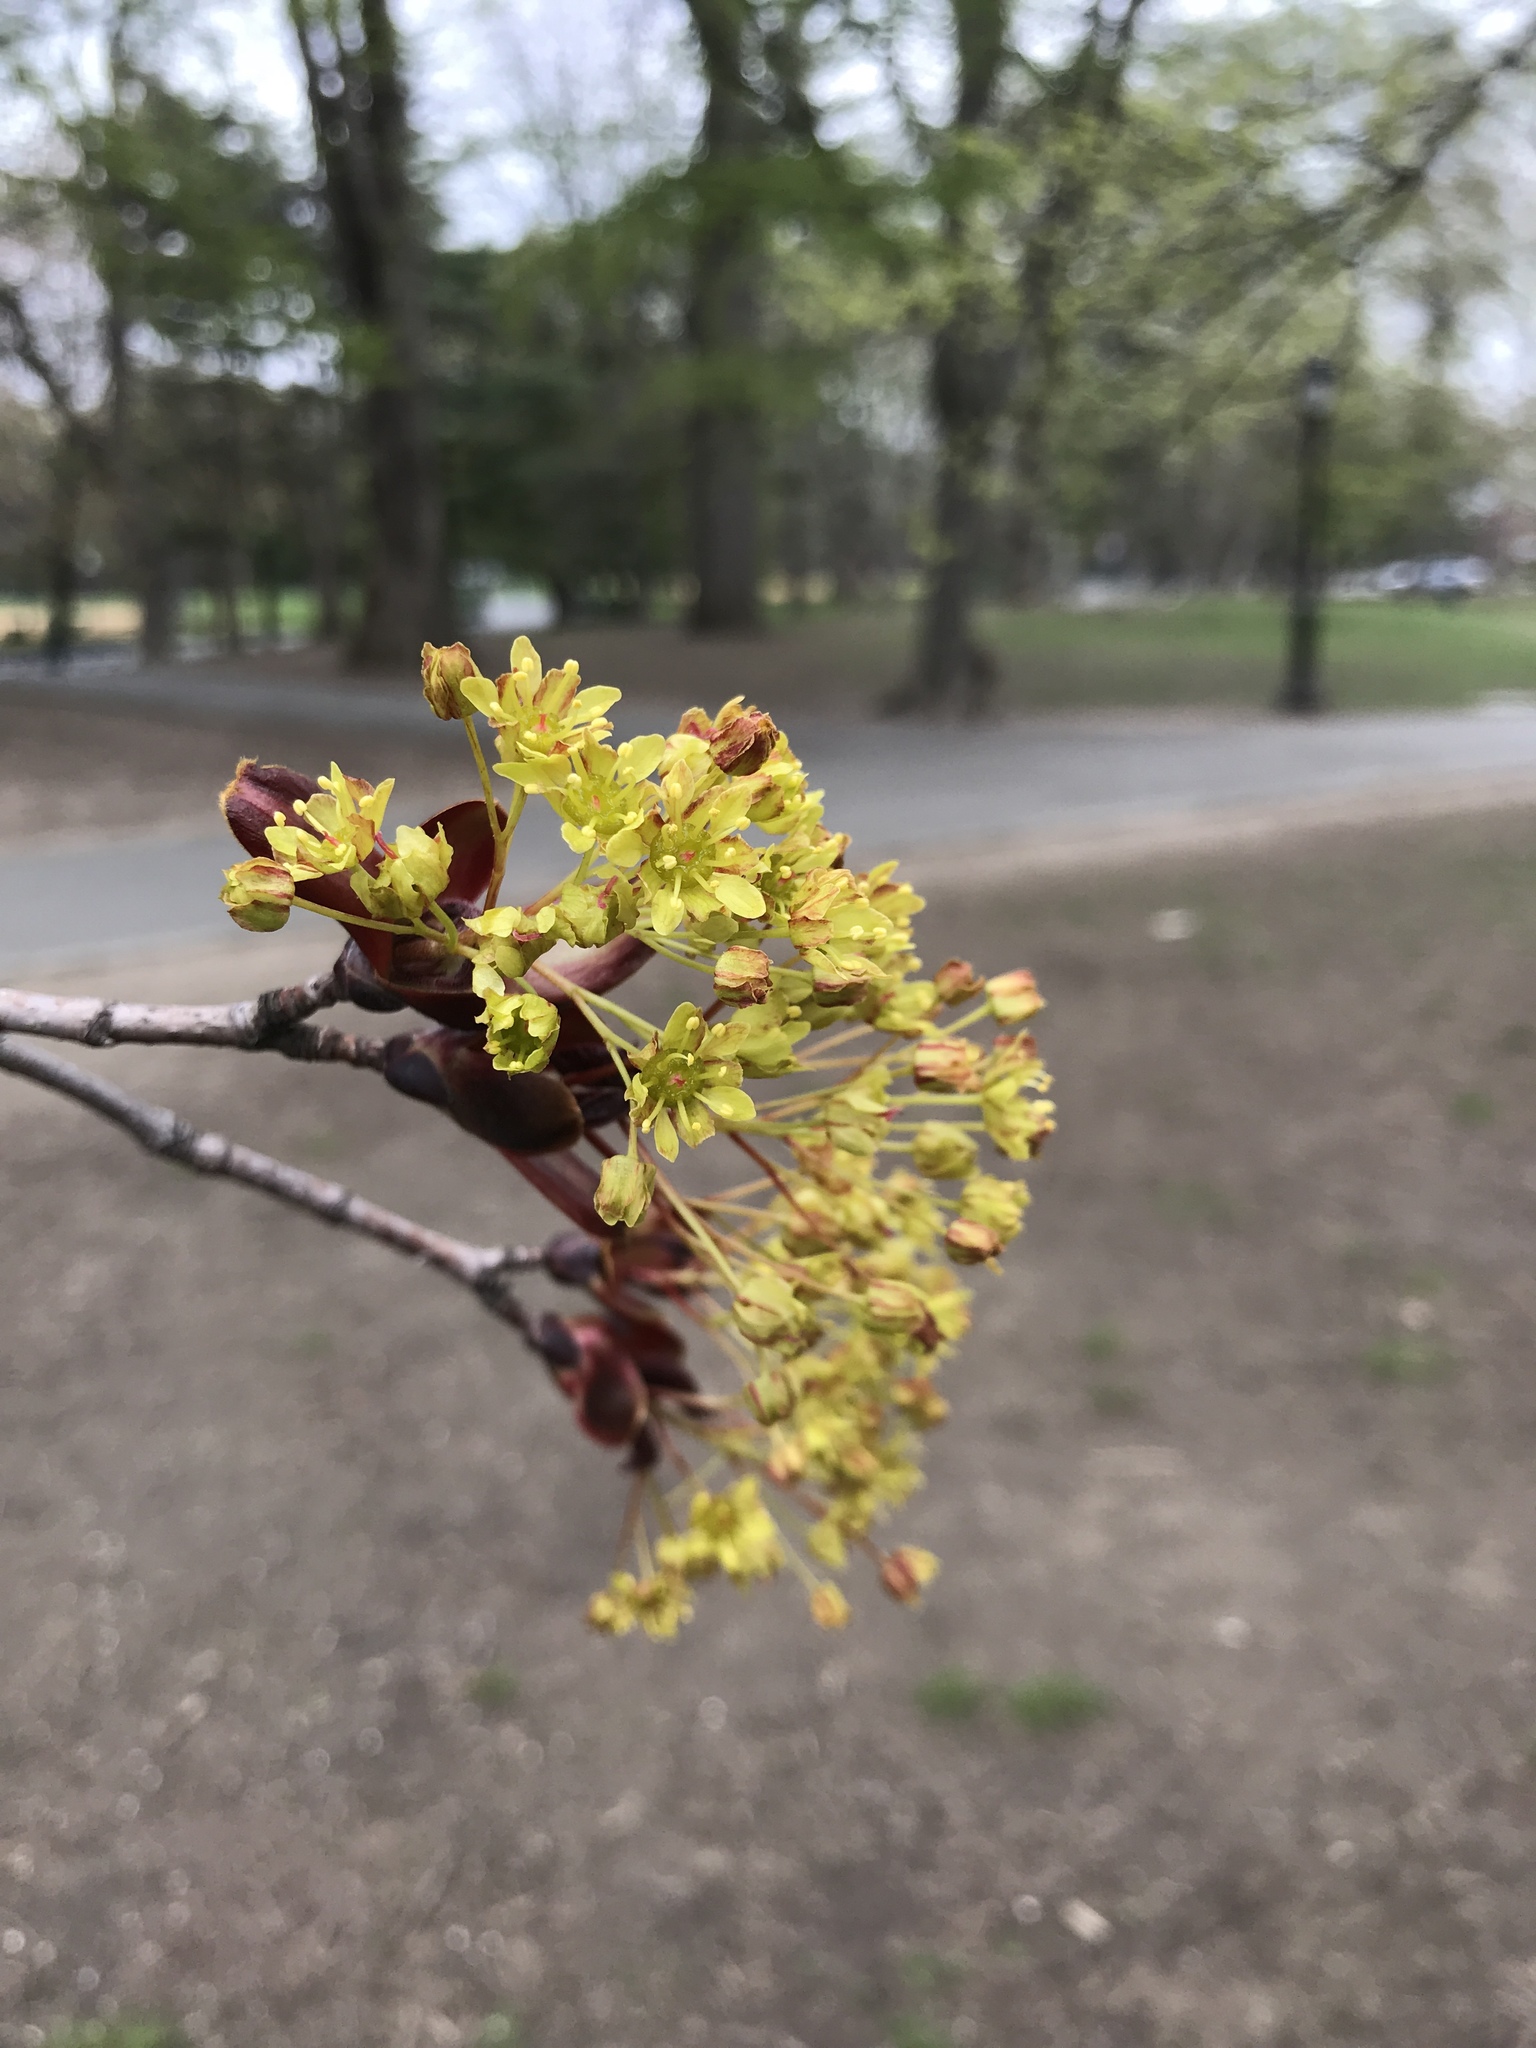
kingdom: Plantae
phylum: Tracheophyta
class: Magnoliopsida
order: Sapindales
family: Sapindaceae
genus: Acer
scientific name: Acer platanoides
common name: Norway maple
